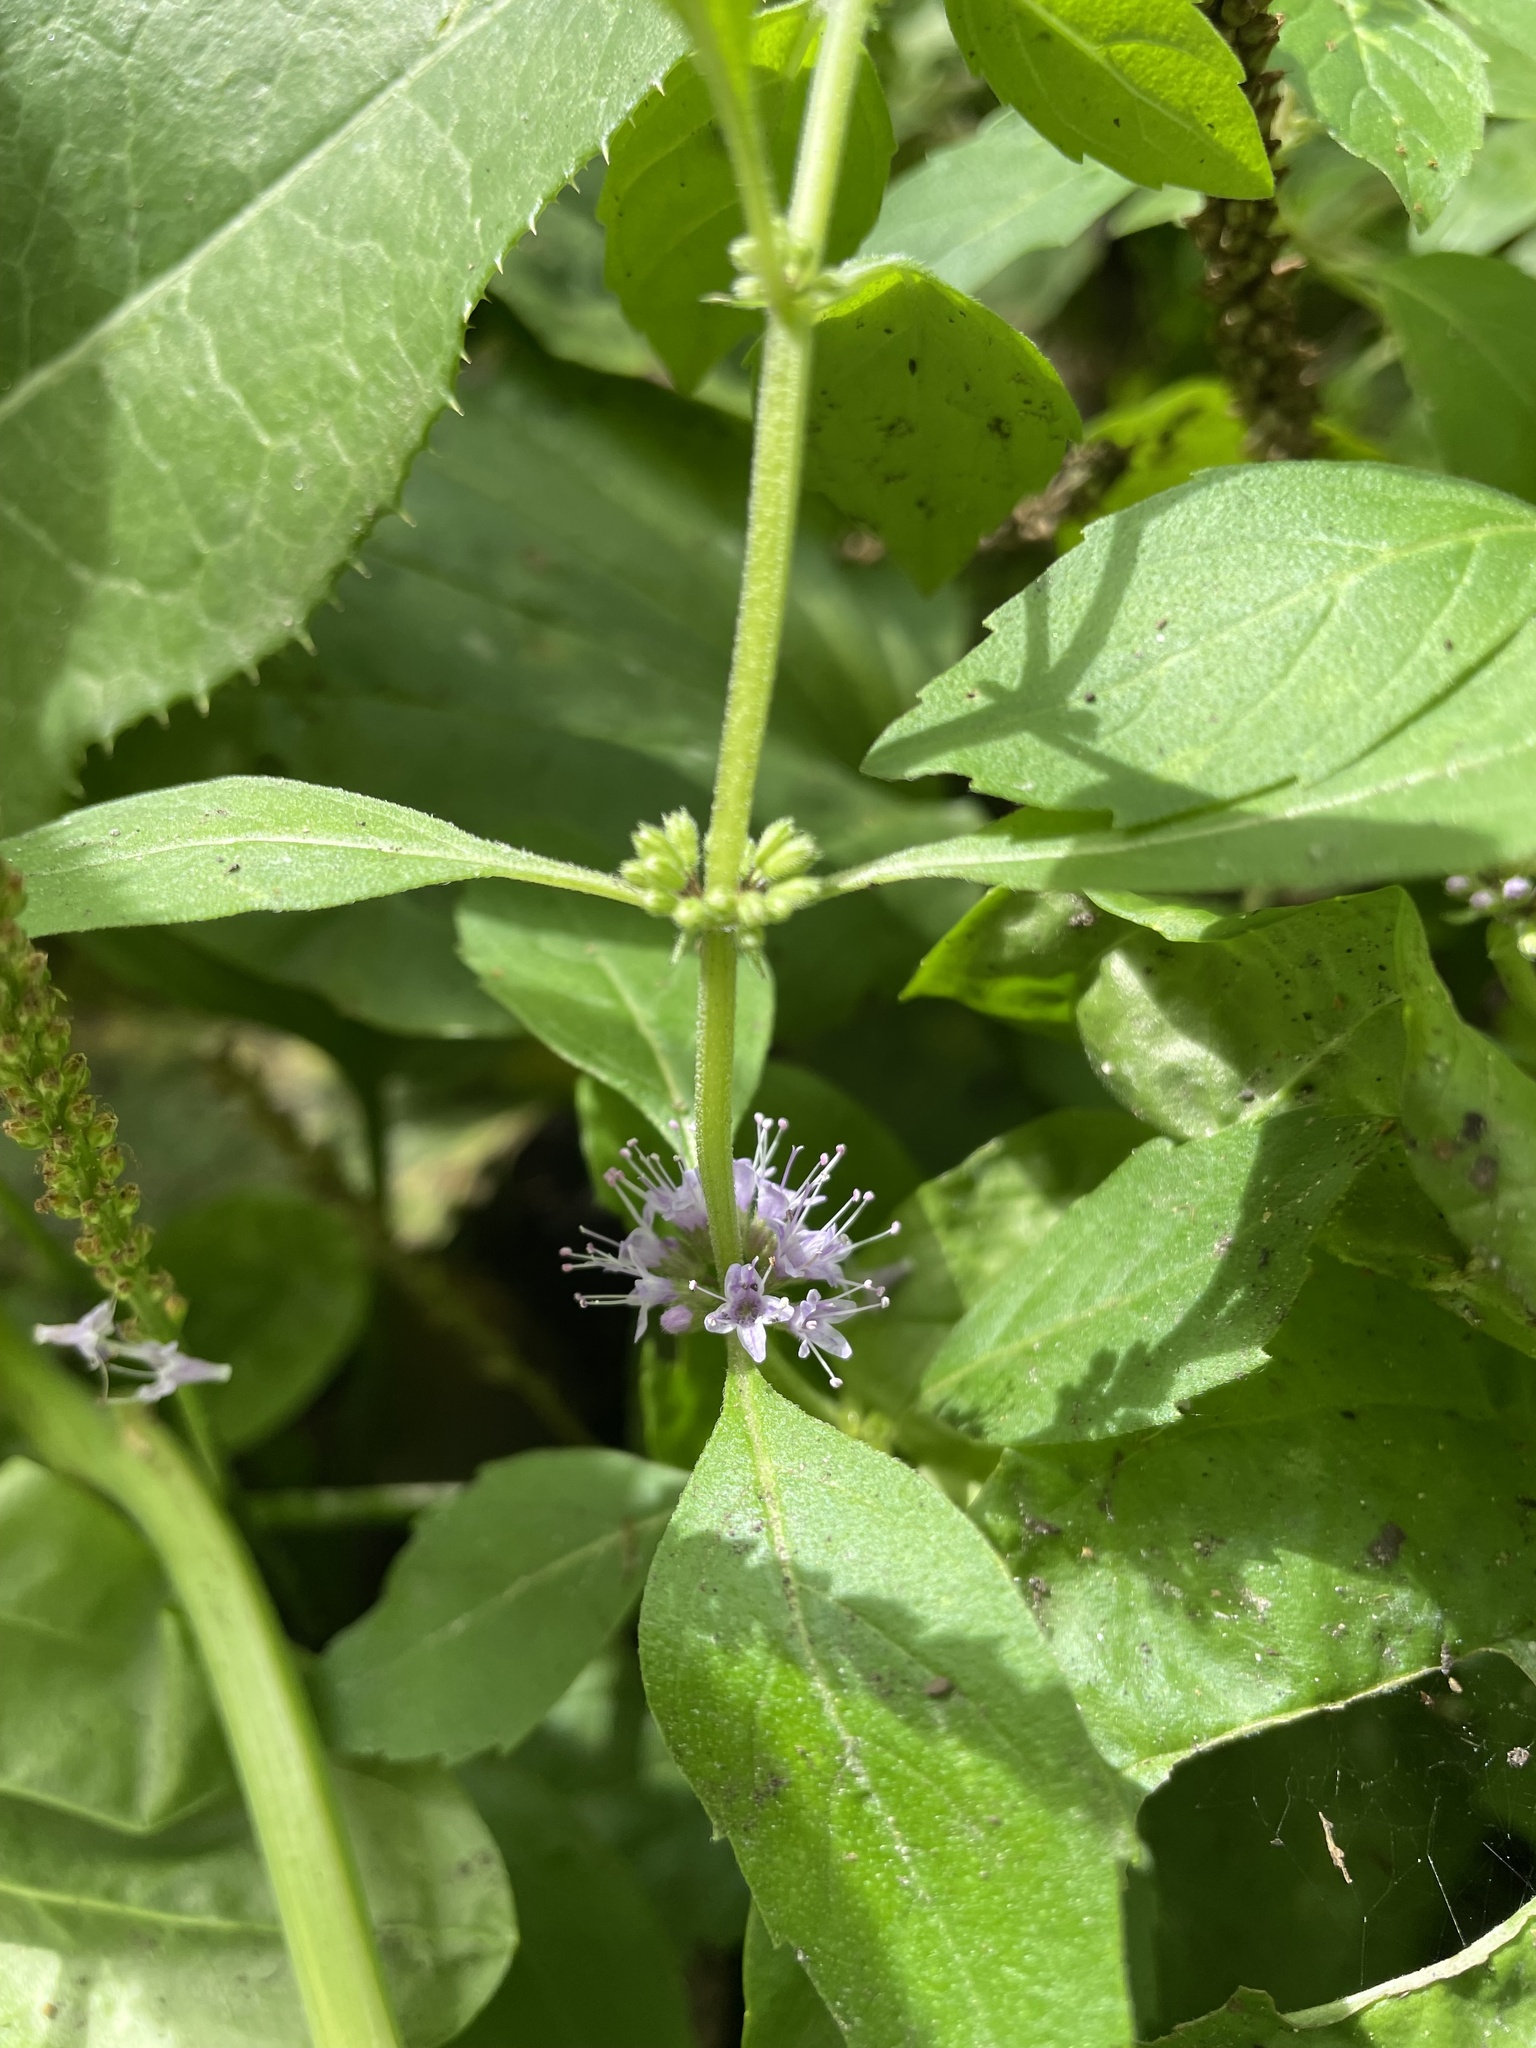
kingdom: Plantae
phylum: Tracheophyta
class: Magnoliopsida
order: Lamiales
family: Lamiaceae
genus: Mentha
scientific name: Mentha canadensis
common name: American corn mint
